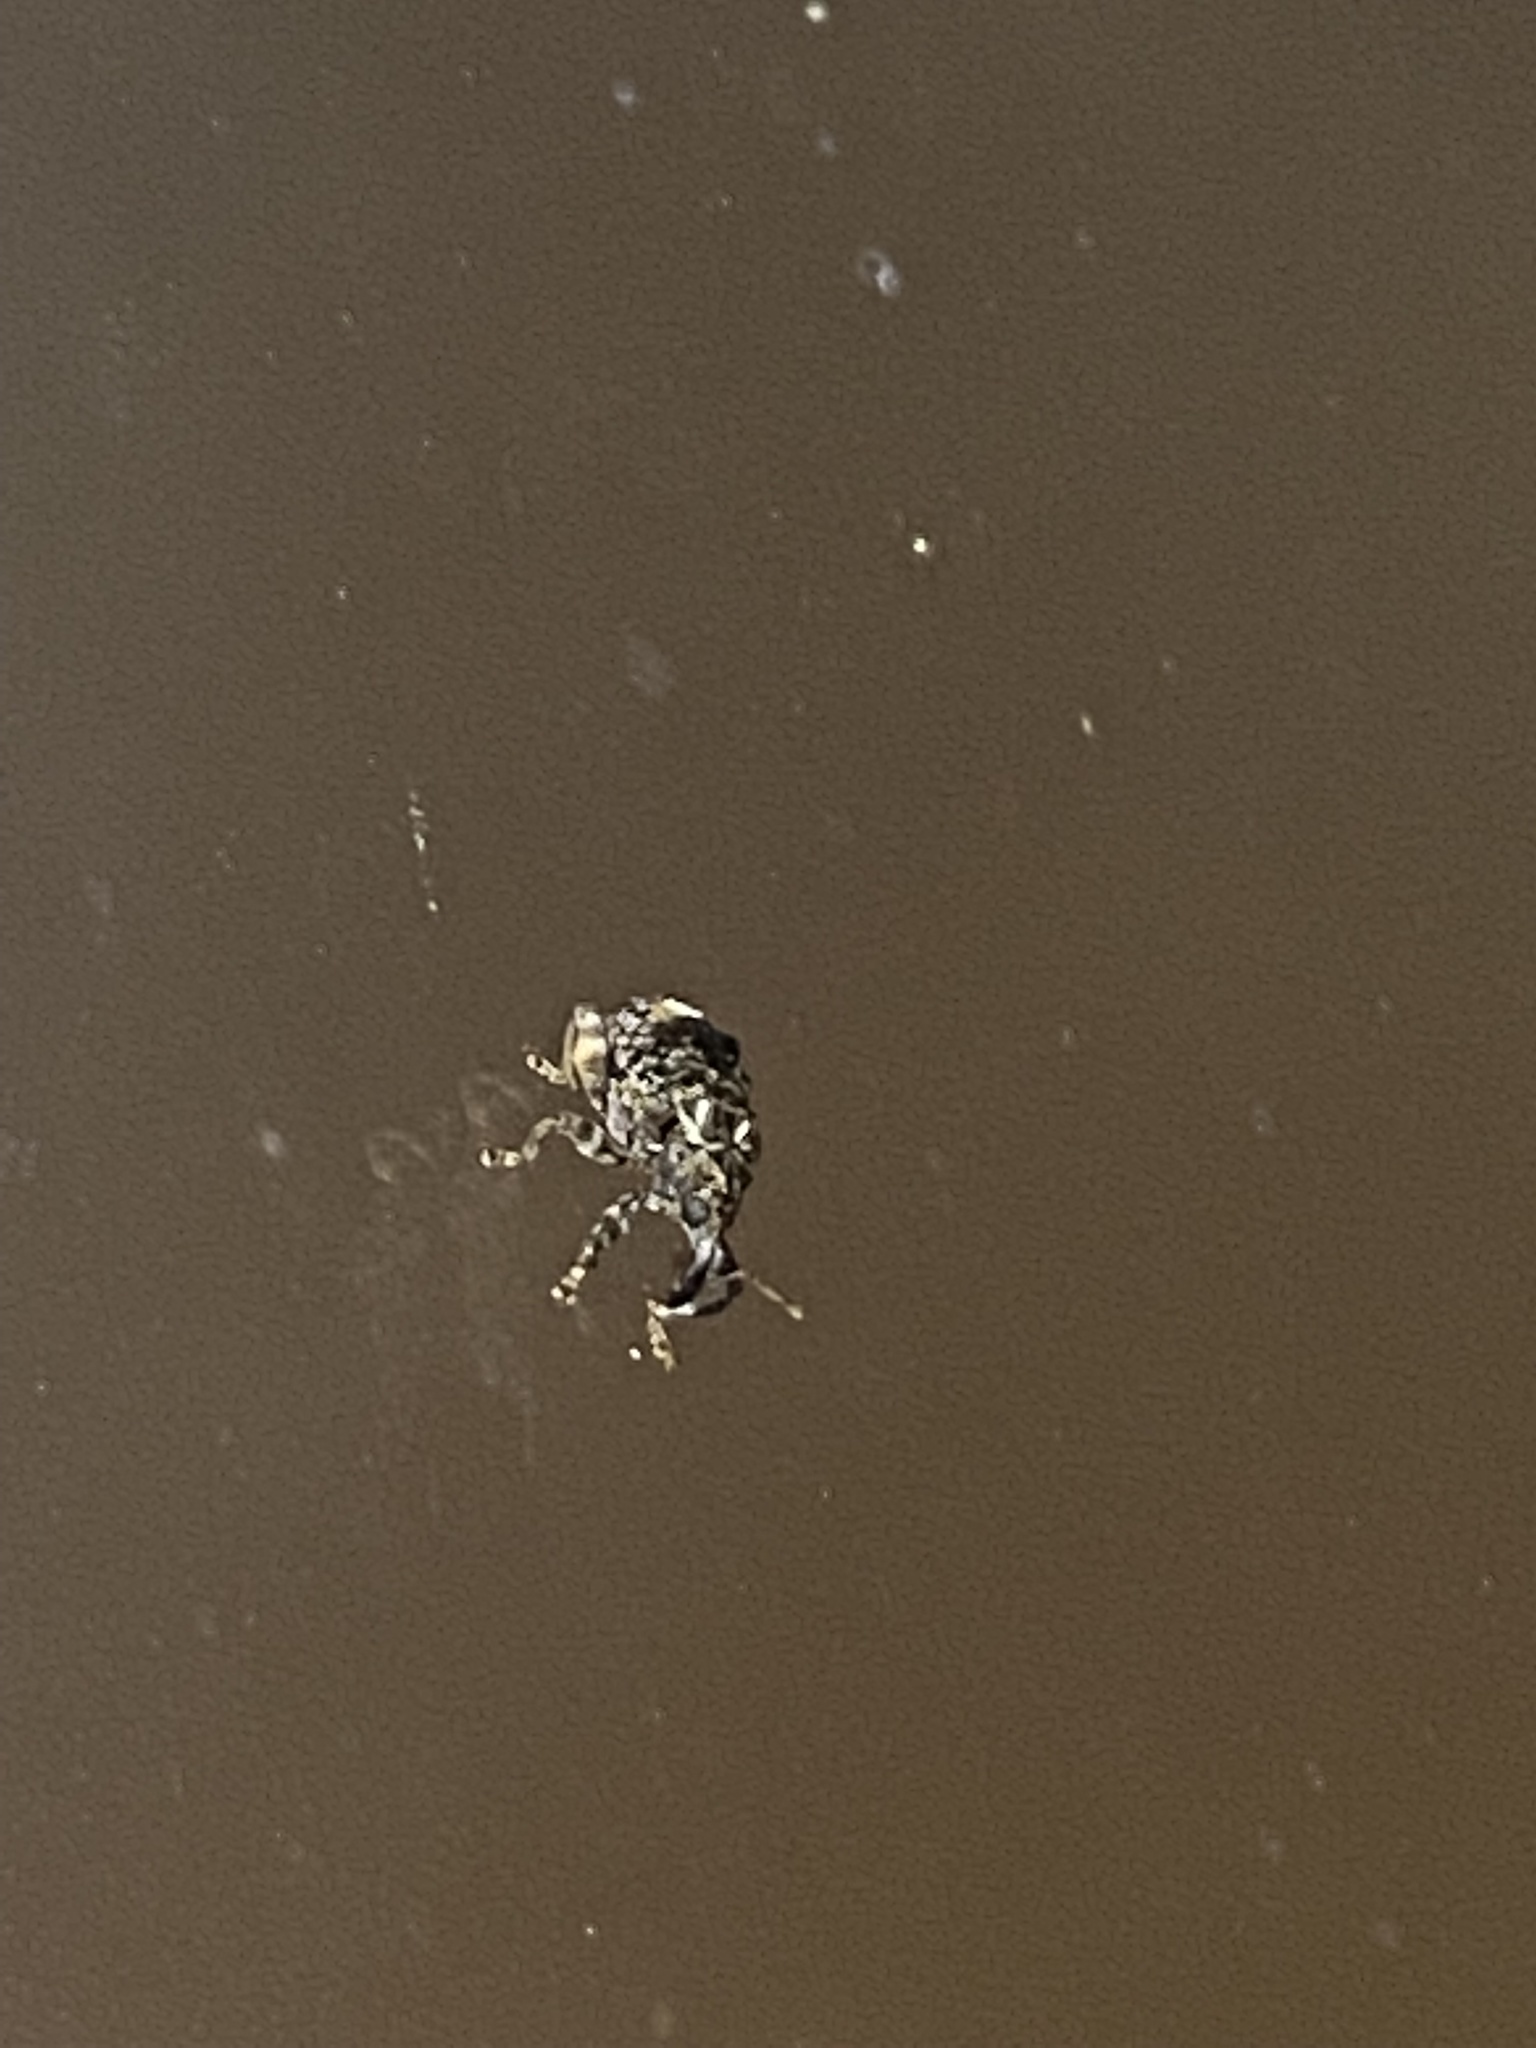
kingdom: Animalia
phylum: Arthropoda
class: Insecta
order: Coleoptera
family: Curculionidae
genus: Conotrachelus
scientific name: Conotrachelus nenuphar
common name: Plum curculio
